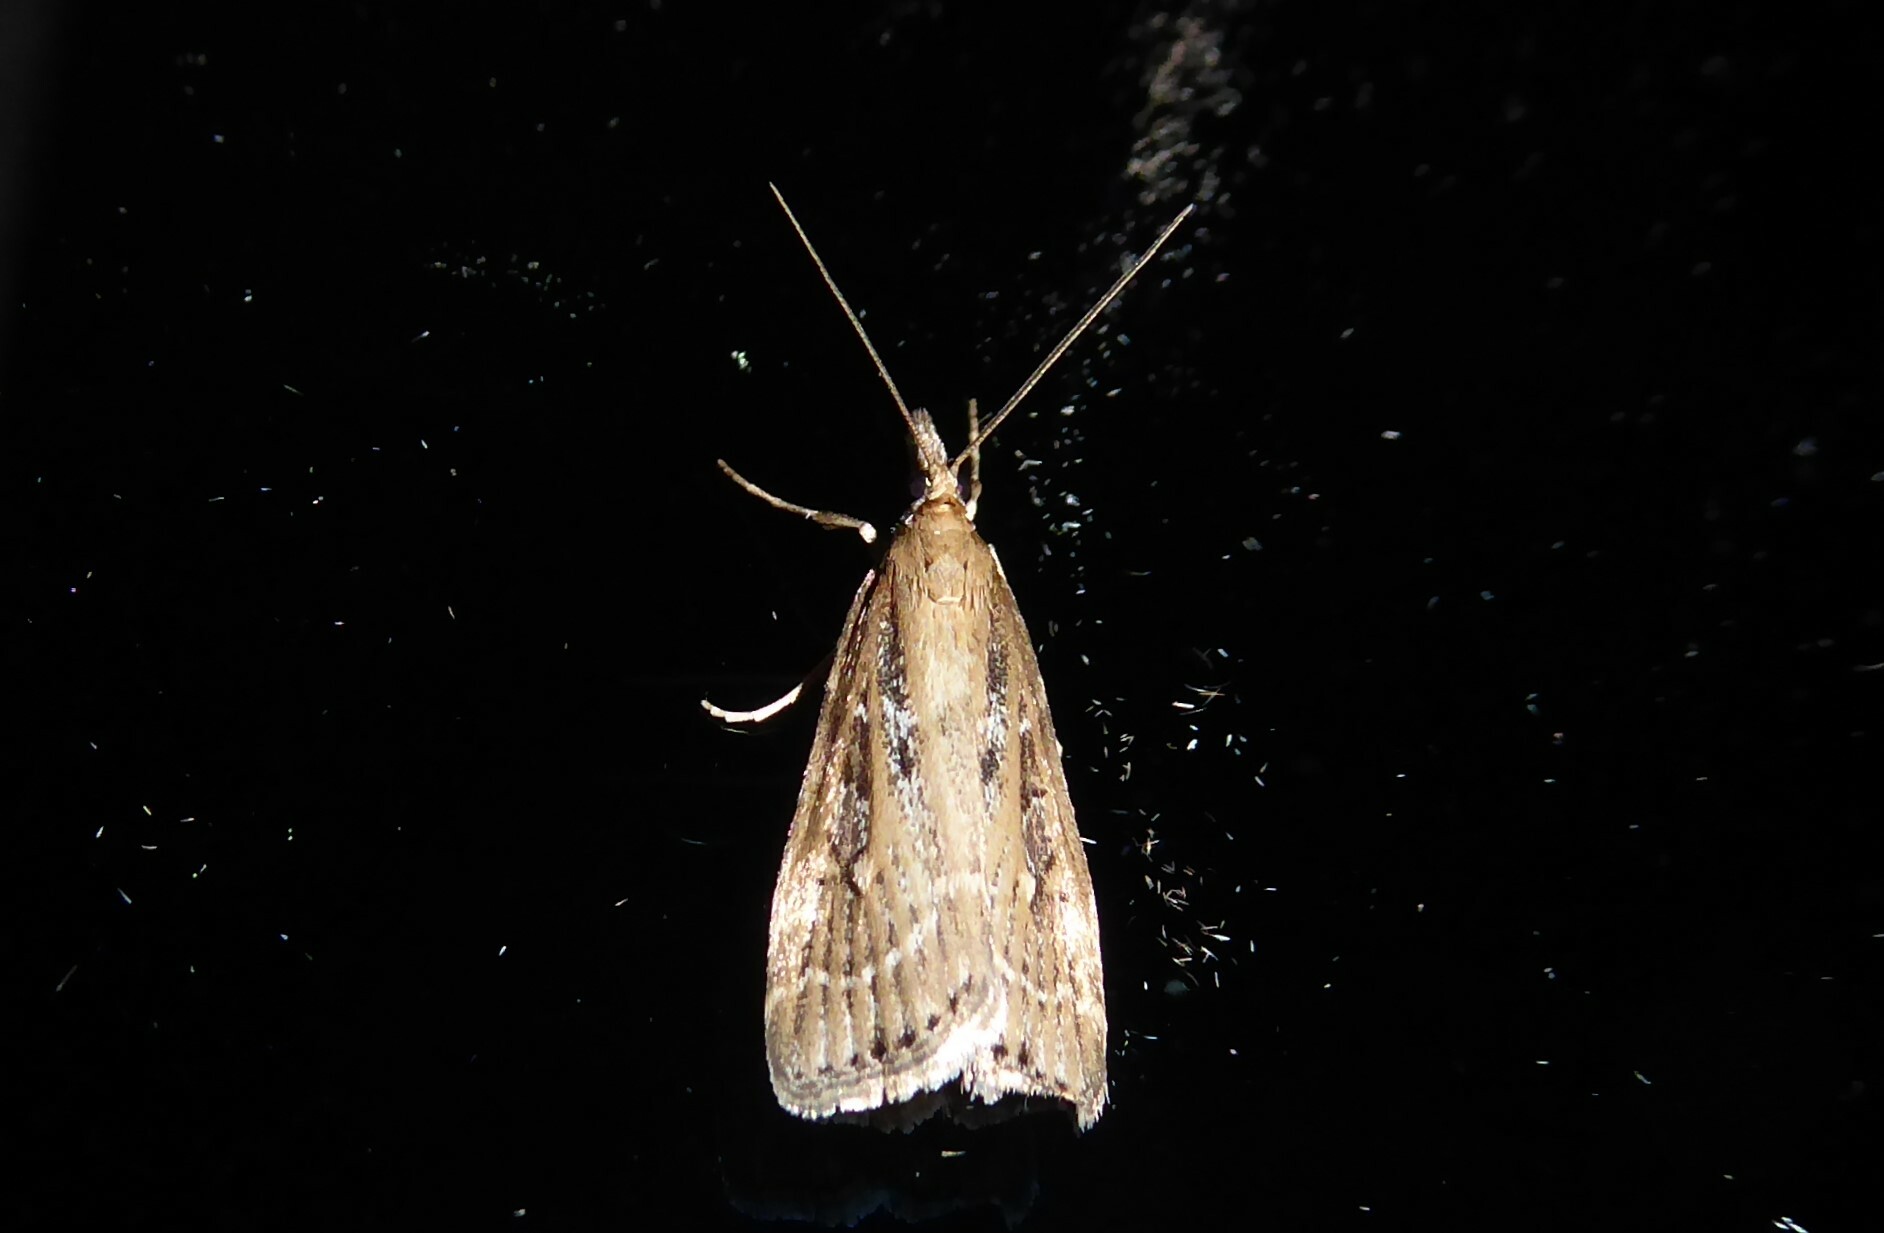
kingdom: Animalia
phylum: Arthropoda
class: Insecta
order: Lepidoptera
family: Crambidae
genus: Eudonia
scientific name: Eudonia octophora
